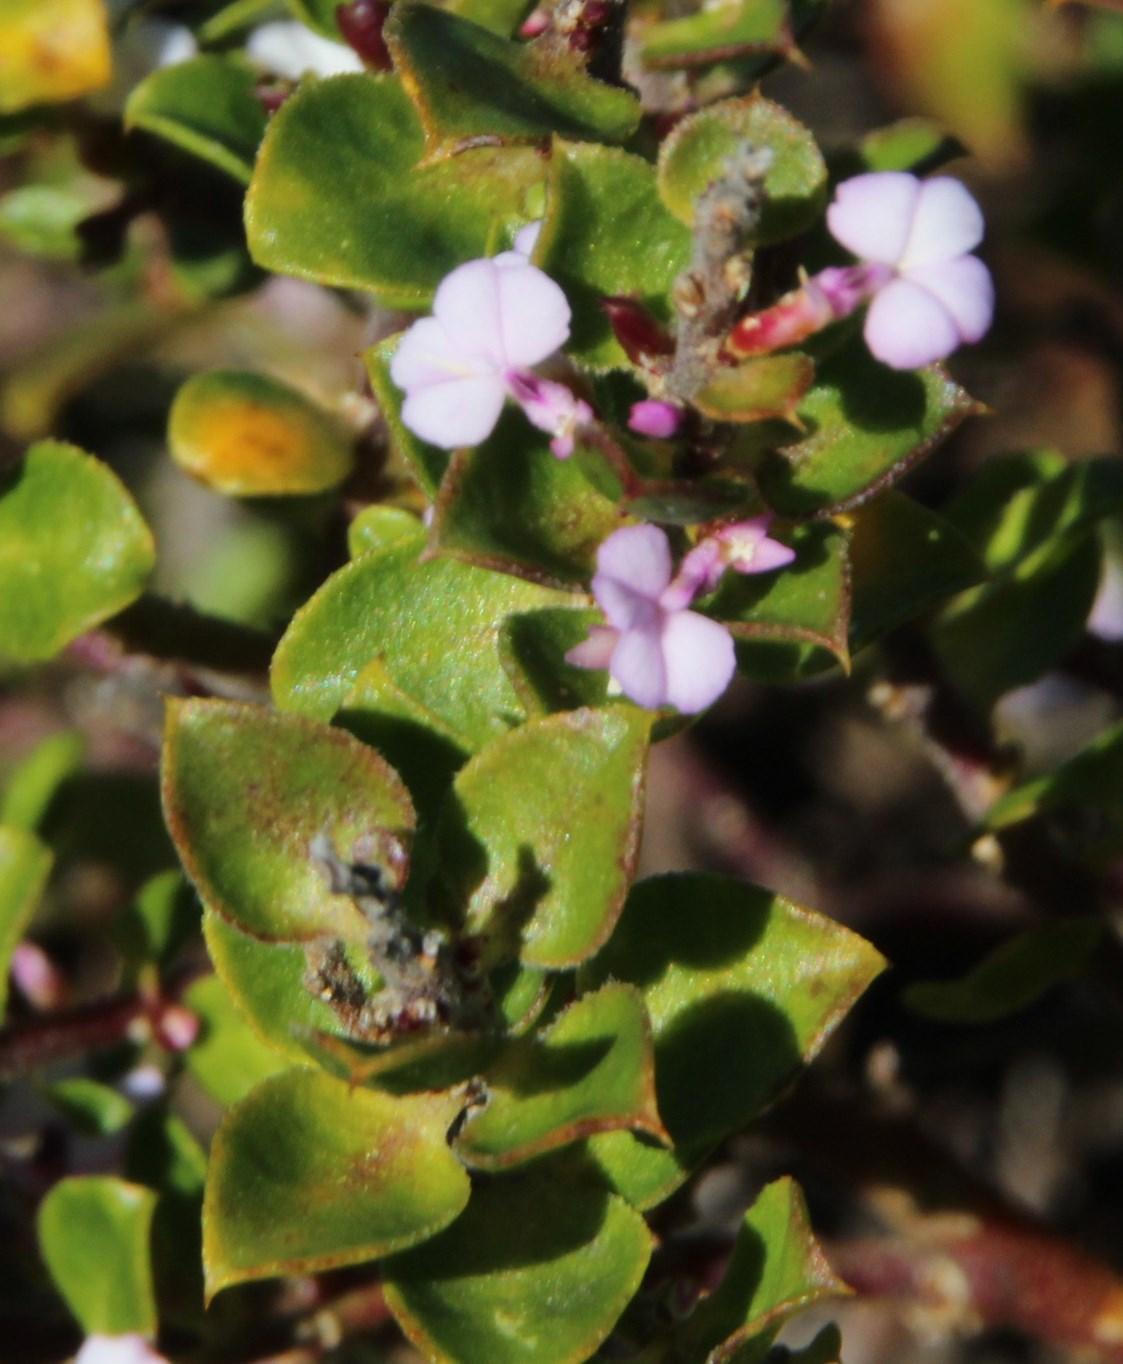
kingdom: Plantae
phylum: Tracheophyta
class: Magnoliopsida
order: Fabales
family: Polygalaceae
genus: Muraltia
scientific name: Muraltia orbicularis
